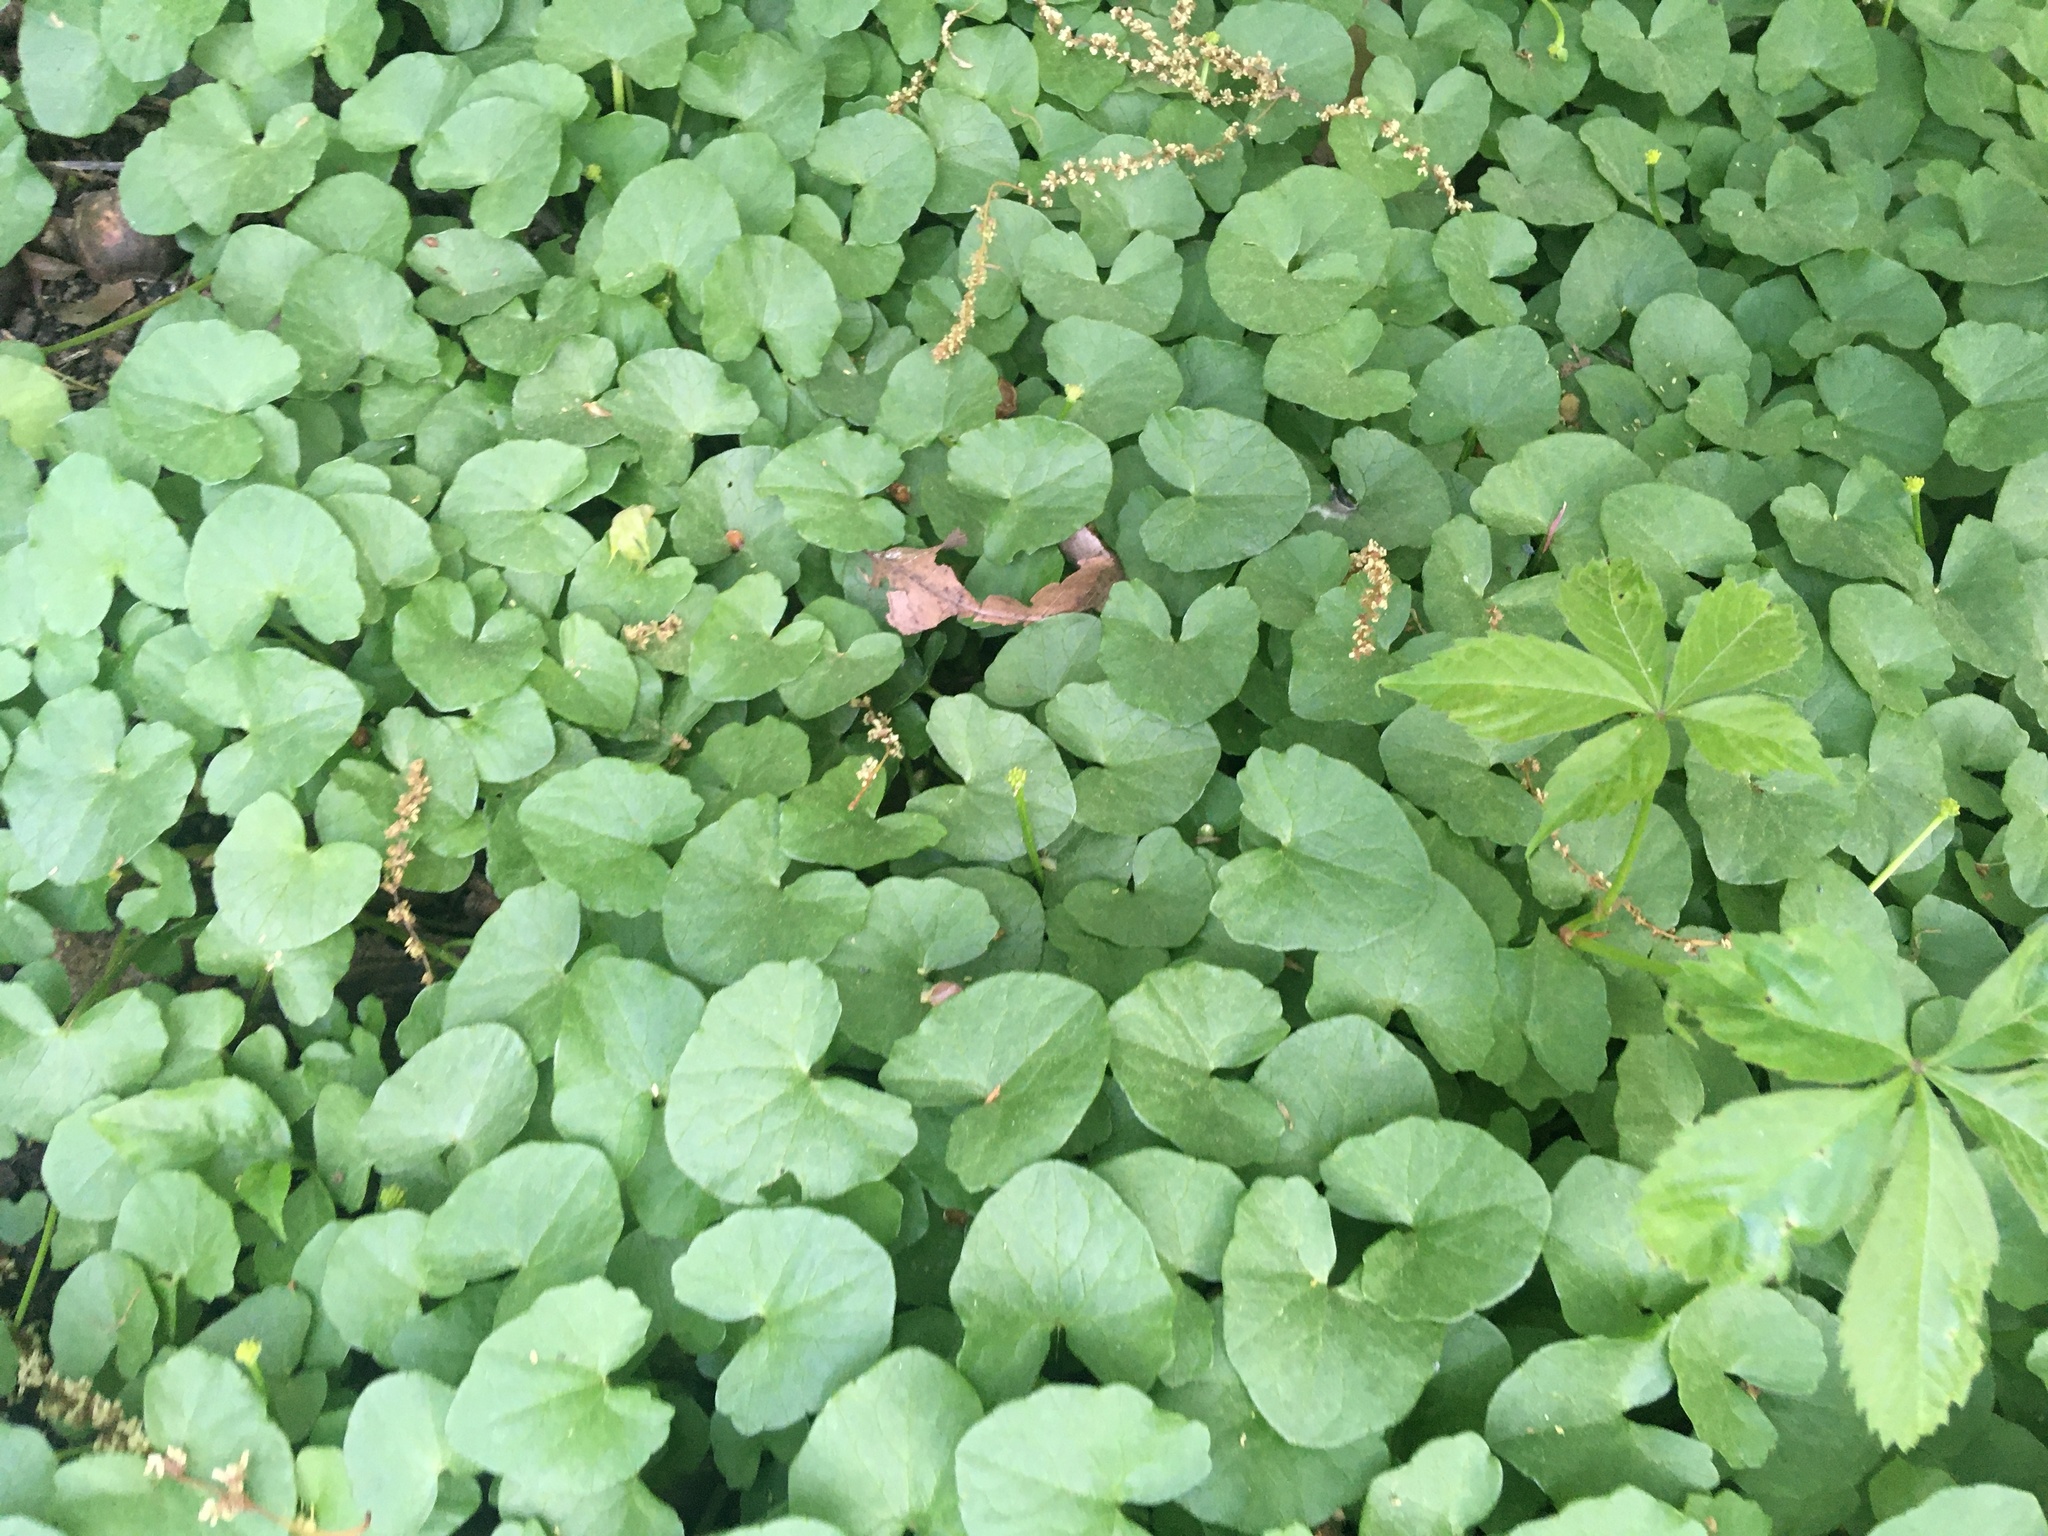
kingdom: Plantae
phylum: Tracheophyta
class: Magnoliopsida
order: Ranunculales
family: Ranunculaceae
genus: Ficaria
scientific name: Ficaria verna
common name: Lesser celandine
